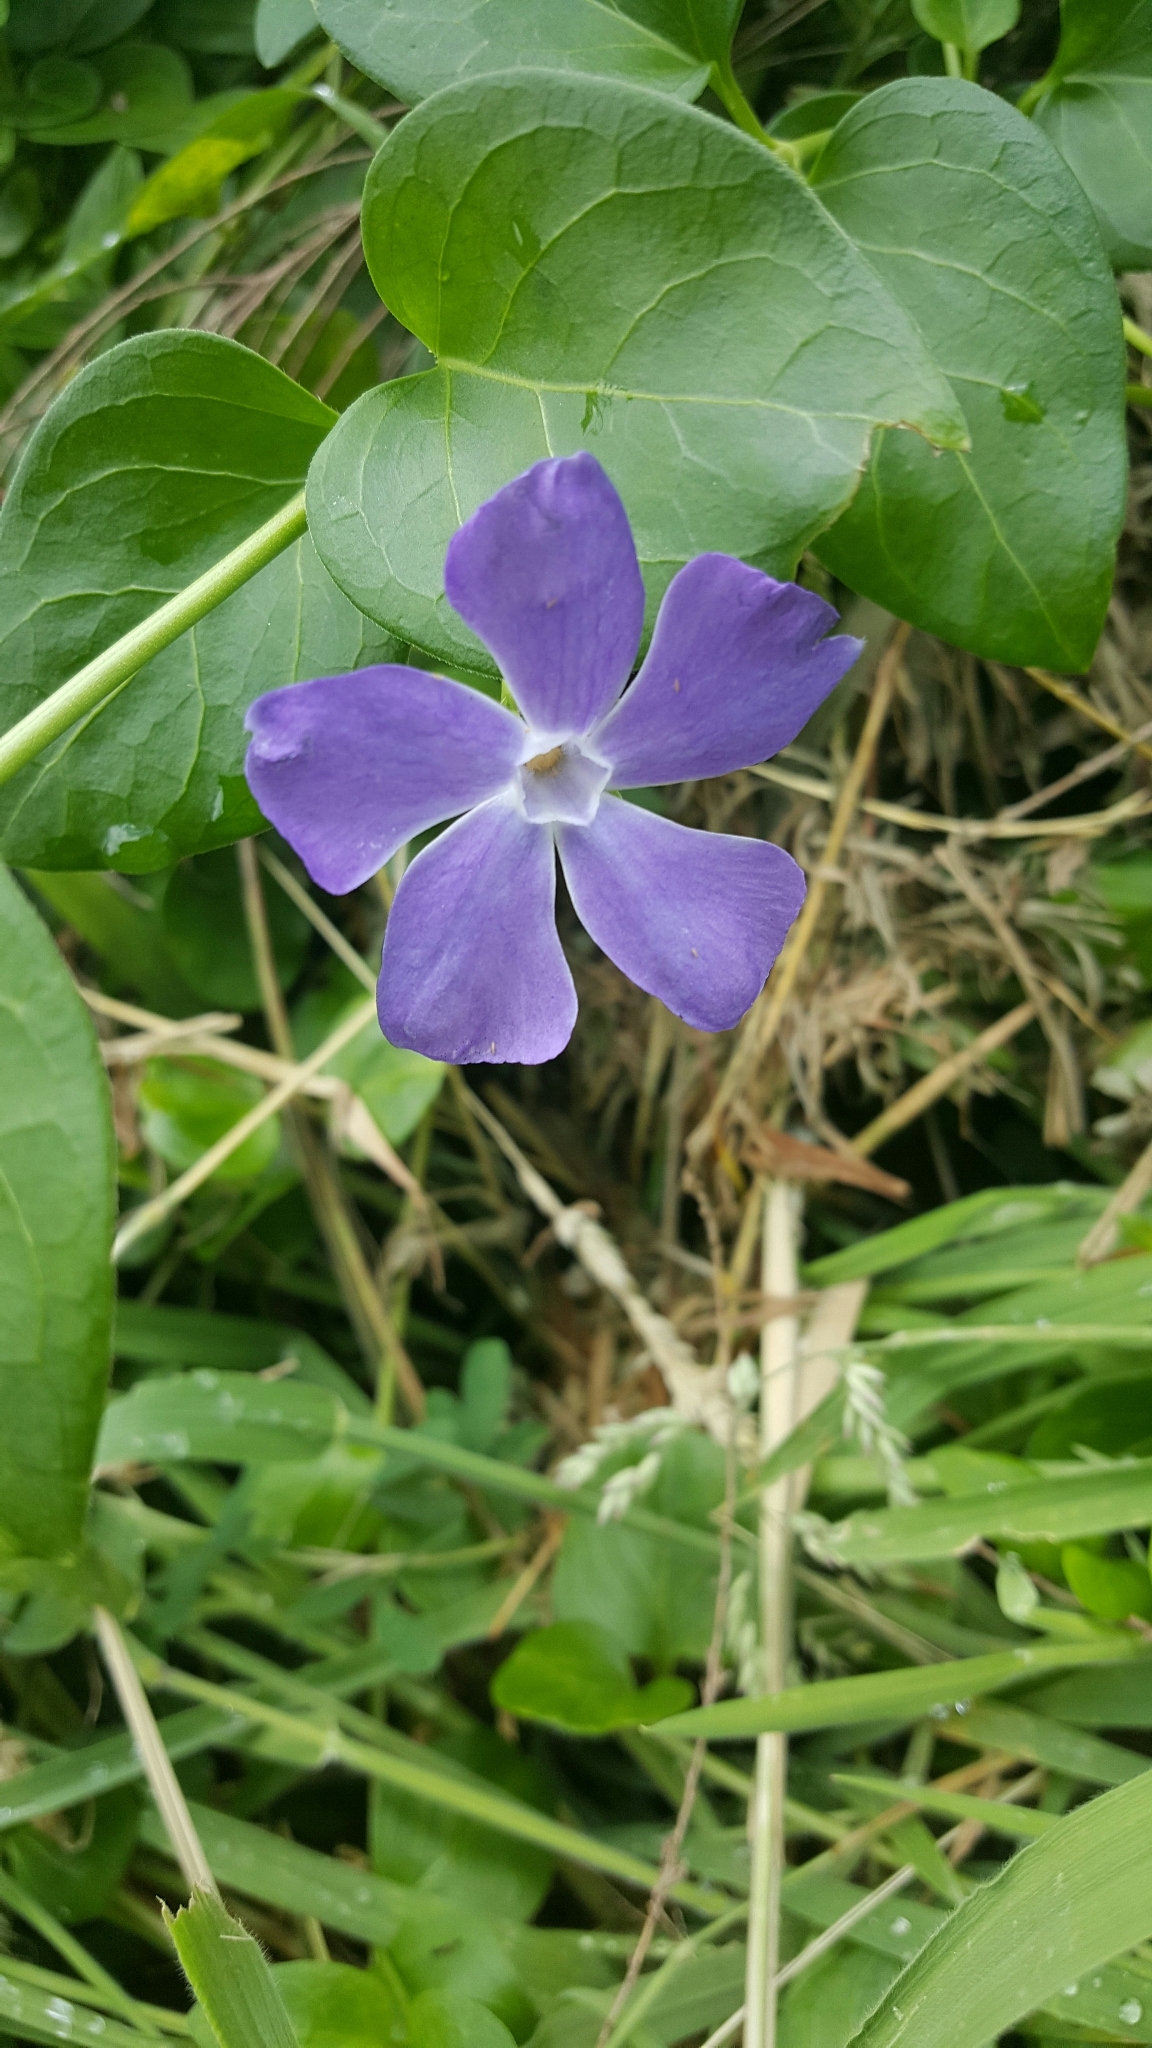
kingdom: Plantae
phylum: Tracheophyta
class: Magnoliopsida
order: Gentianales
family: Apocynaceae
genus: Vinca
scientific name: Vinca major
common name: Greater periwinkle
